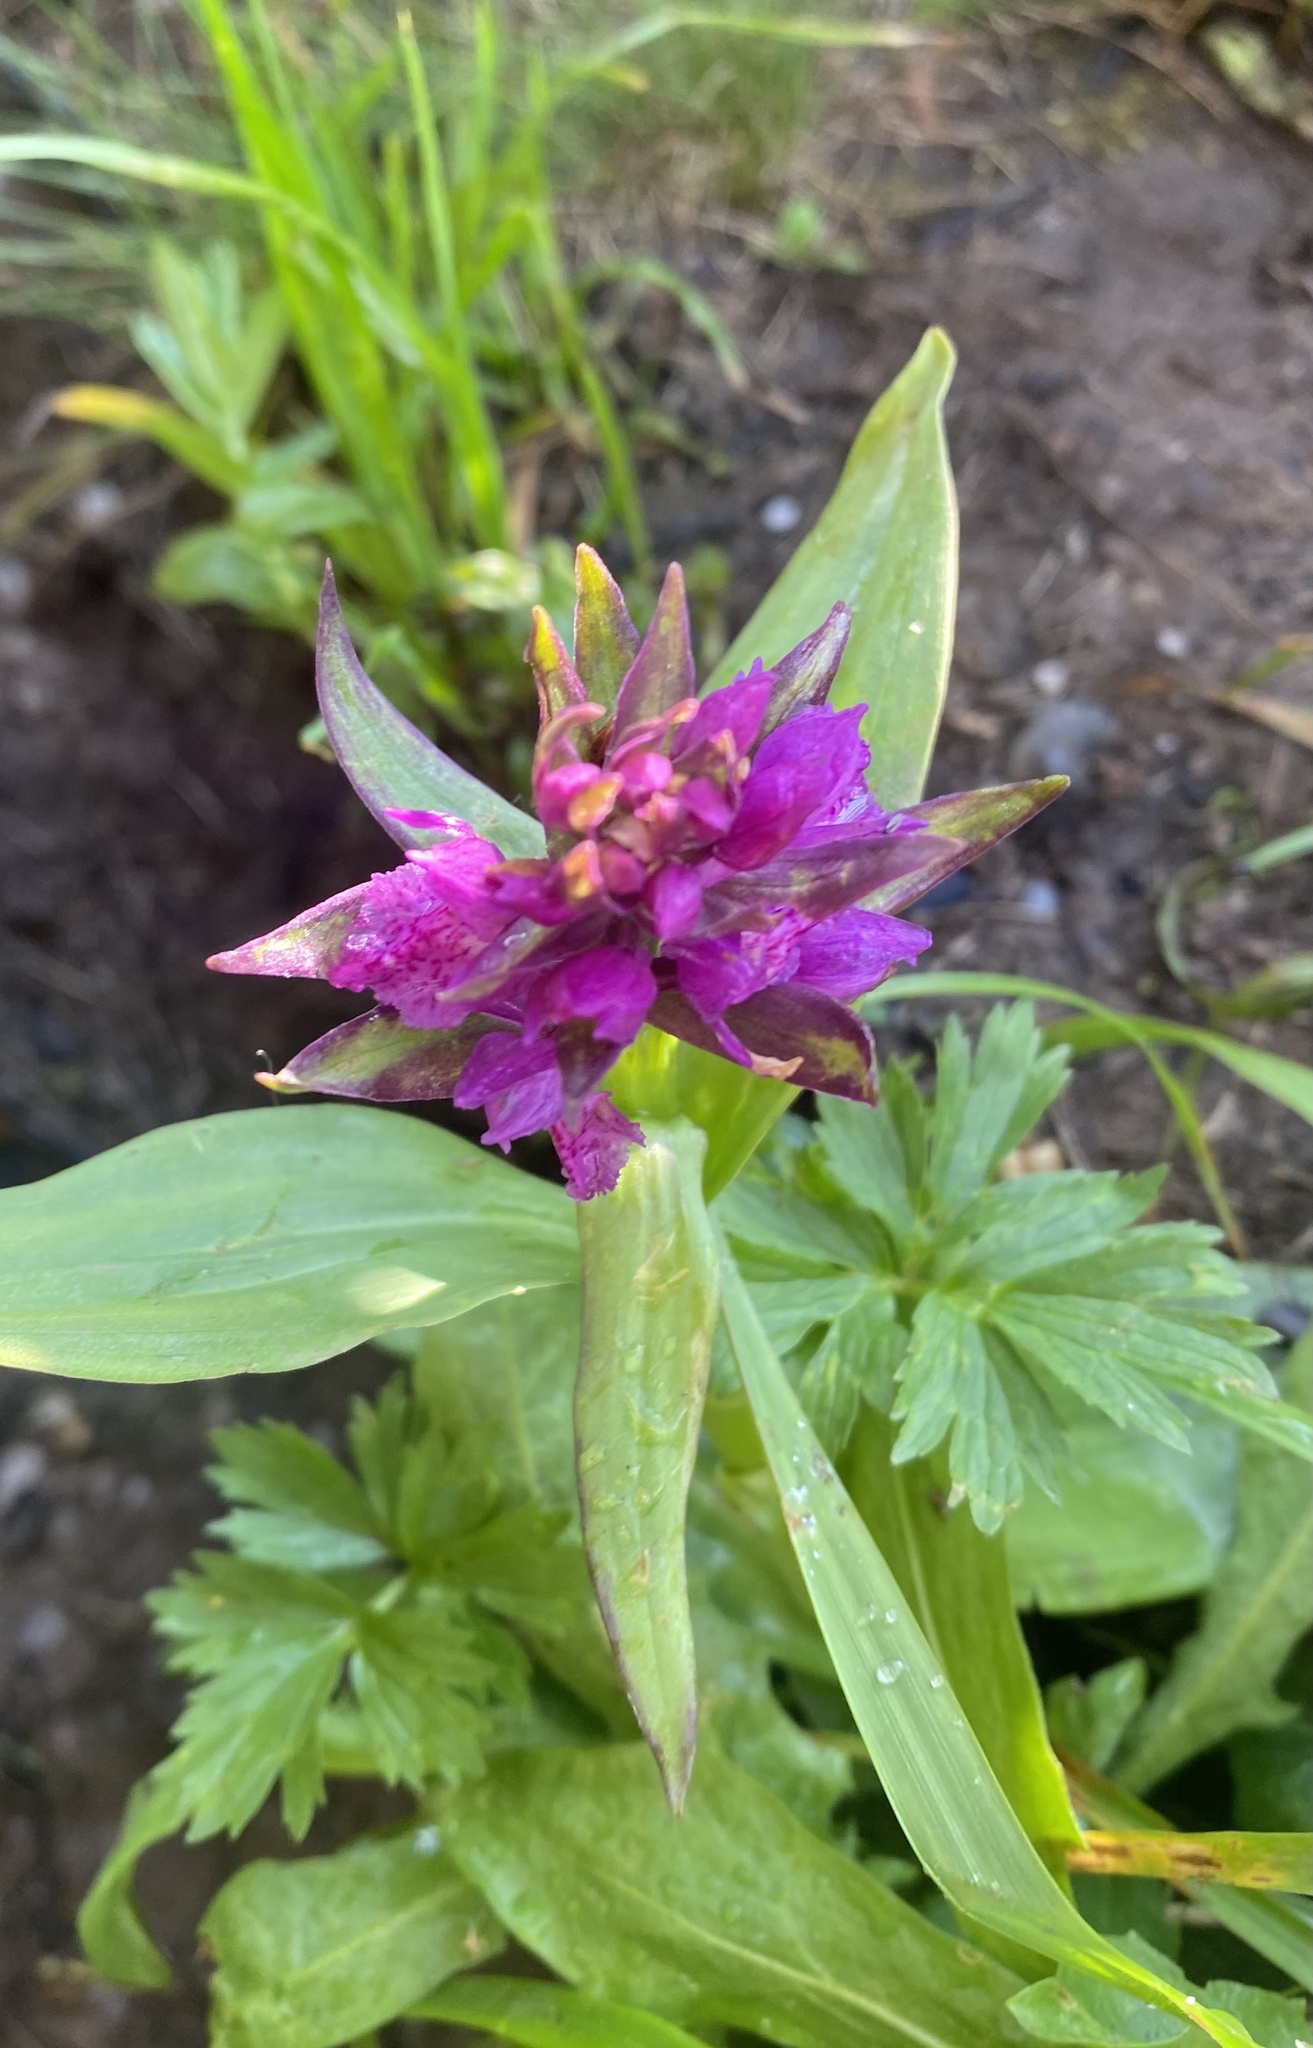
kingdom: Plantae
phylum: Tracheophyta
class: Liliopsida
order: Asparagales
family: Orchidaceae
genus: Dactylorhiza
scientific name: Dactylorhiza euxina
